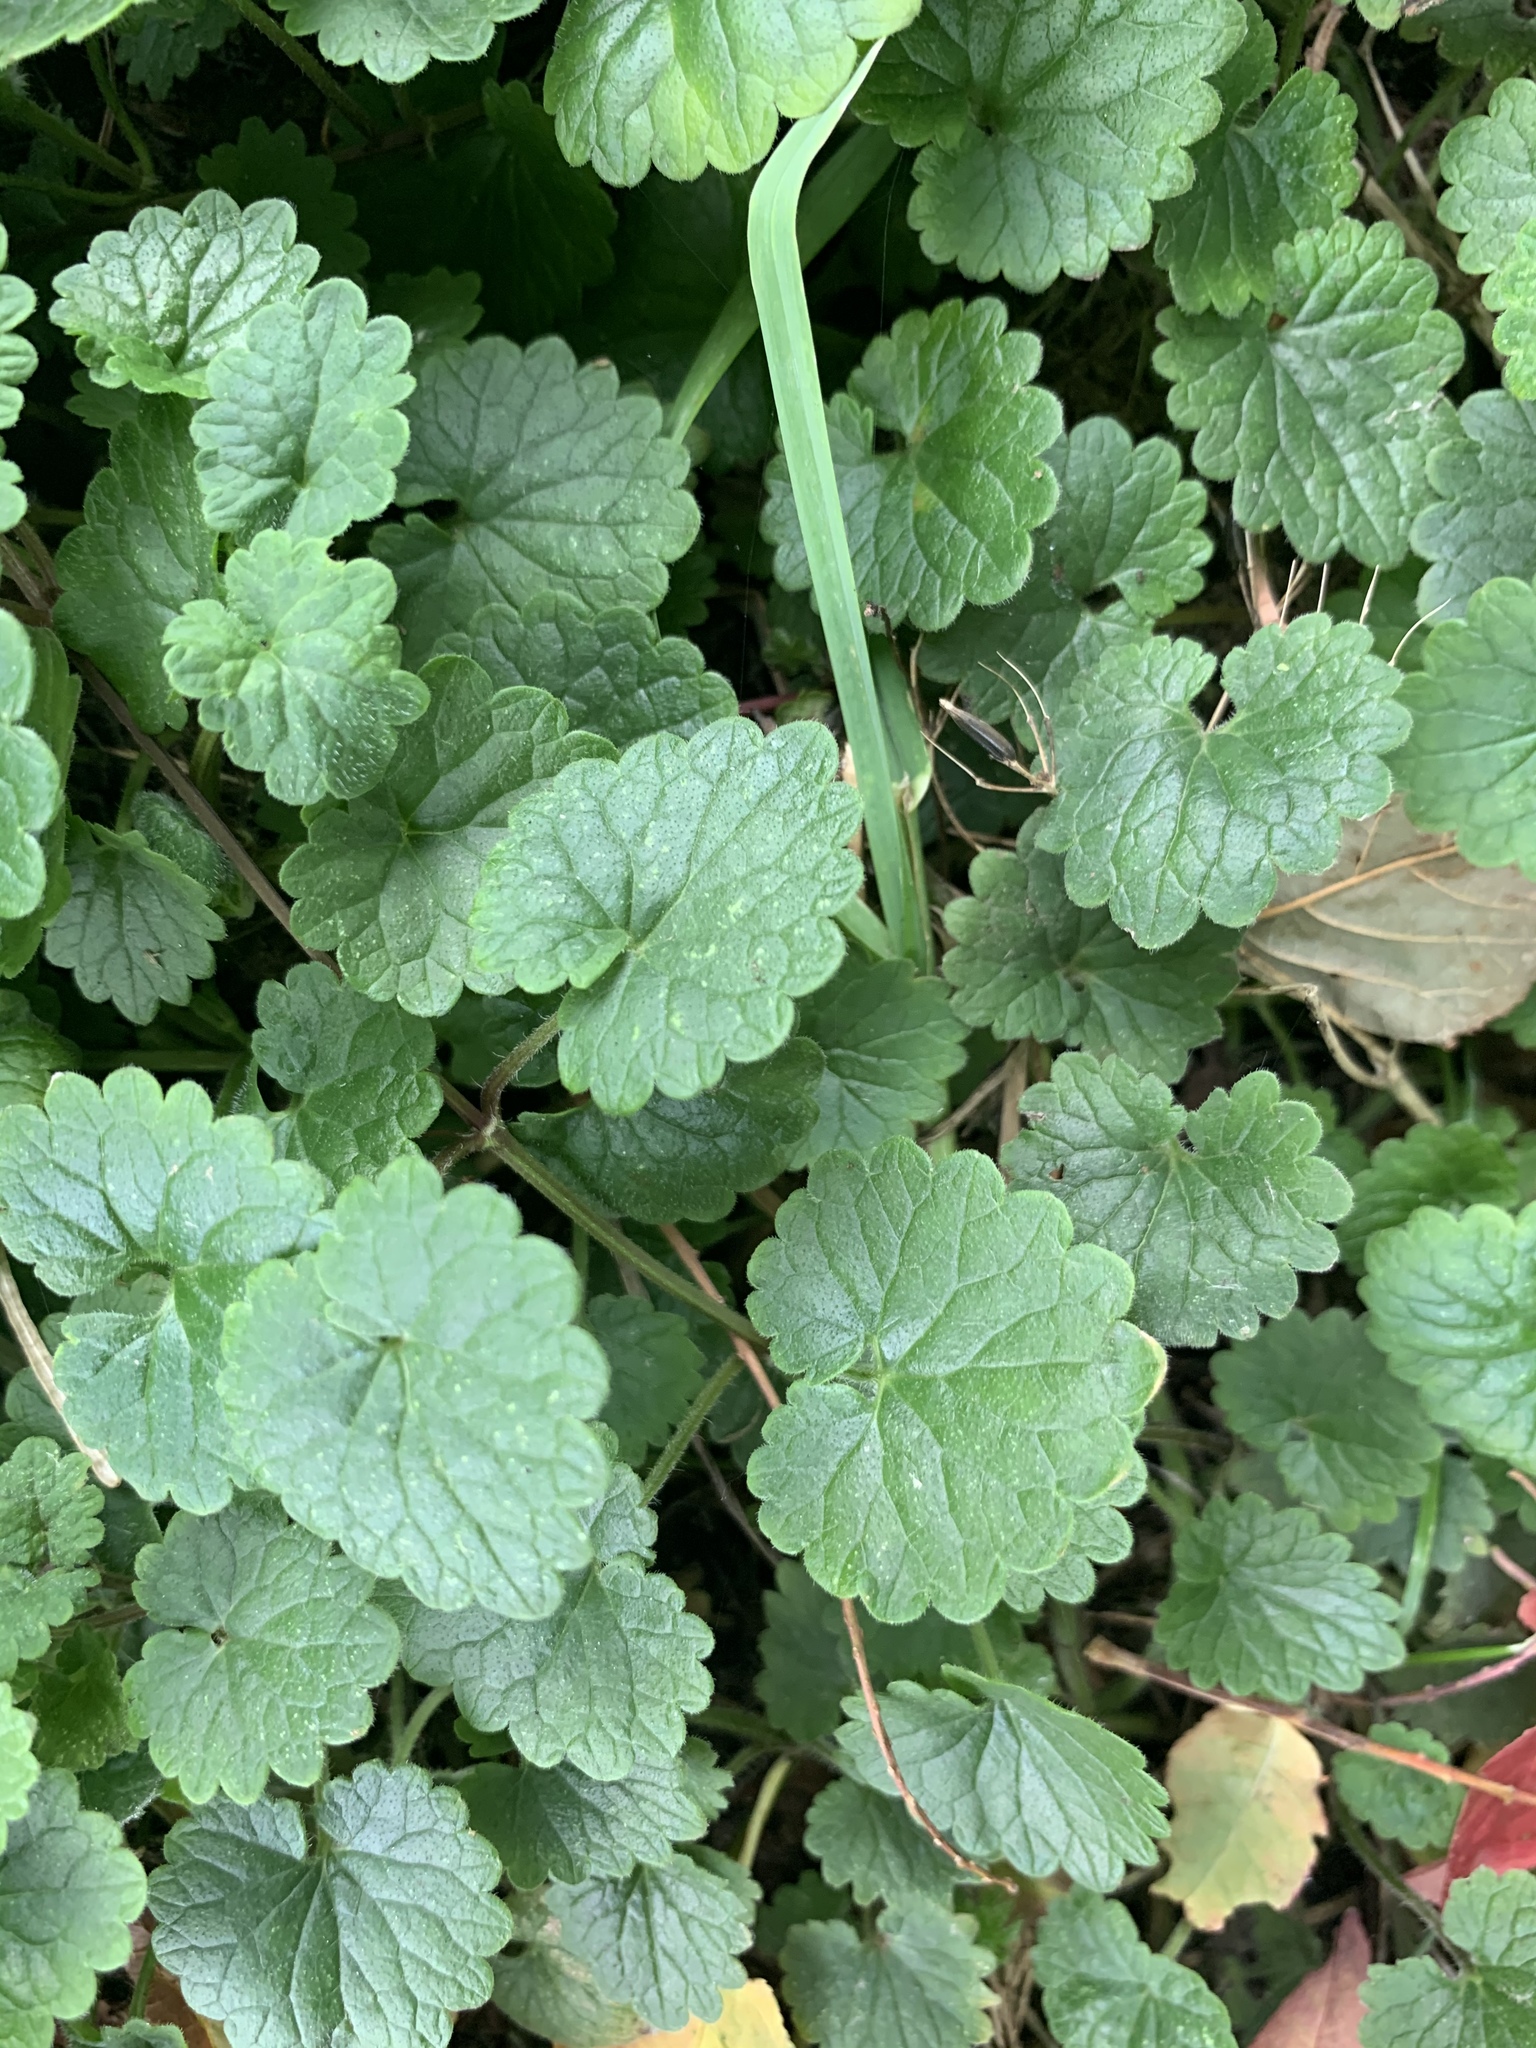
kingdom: Plantae
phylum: Tracheophyta
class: Magnoliopsida
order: Lamiales
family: Lamiaceae
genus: Glechoma
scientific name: Glechoma hederacea
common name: Ground ivy
